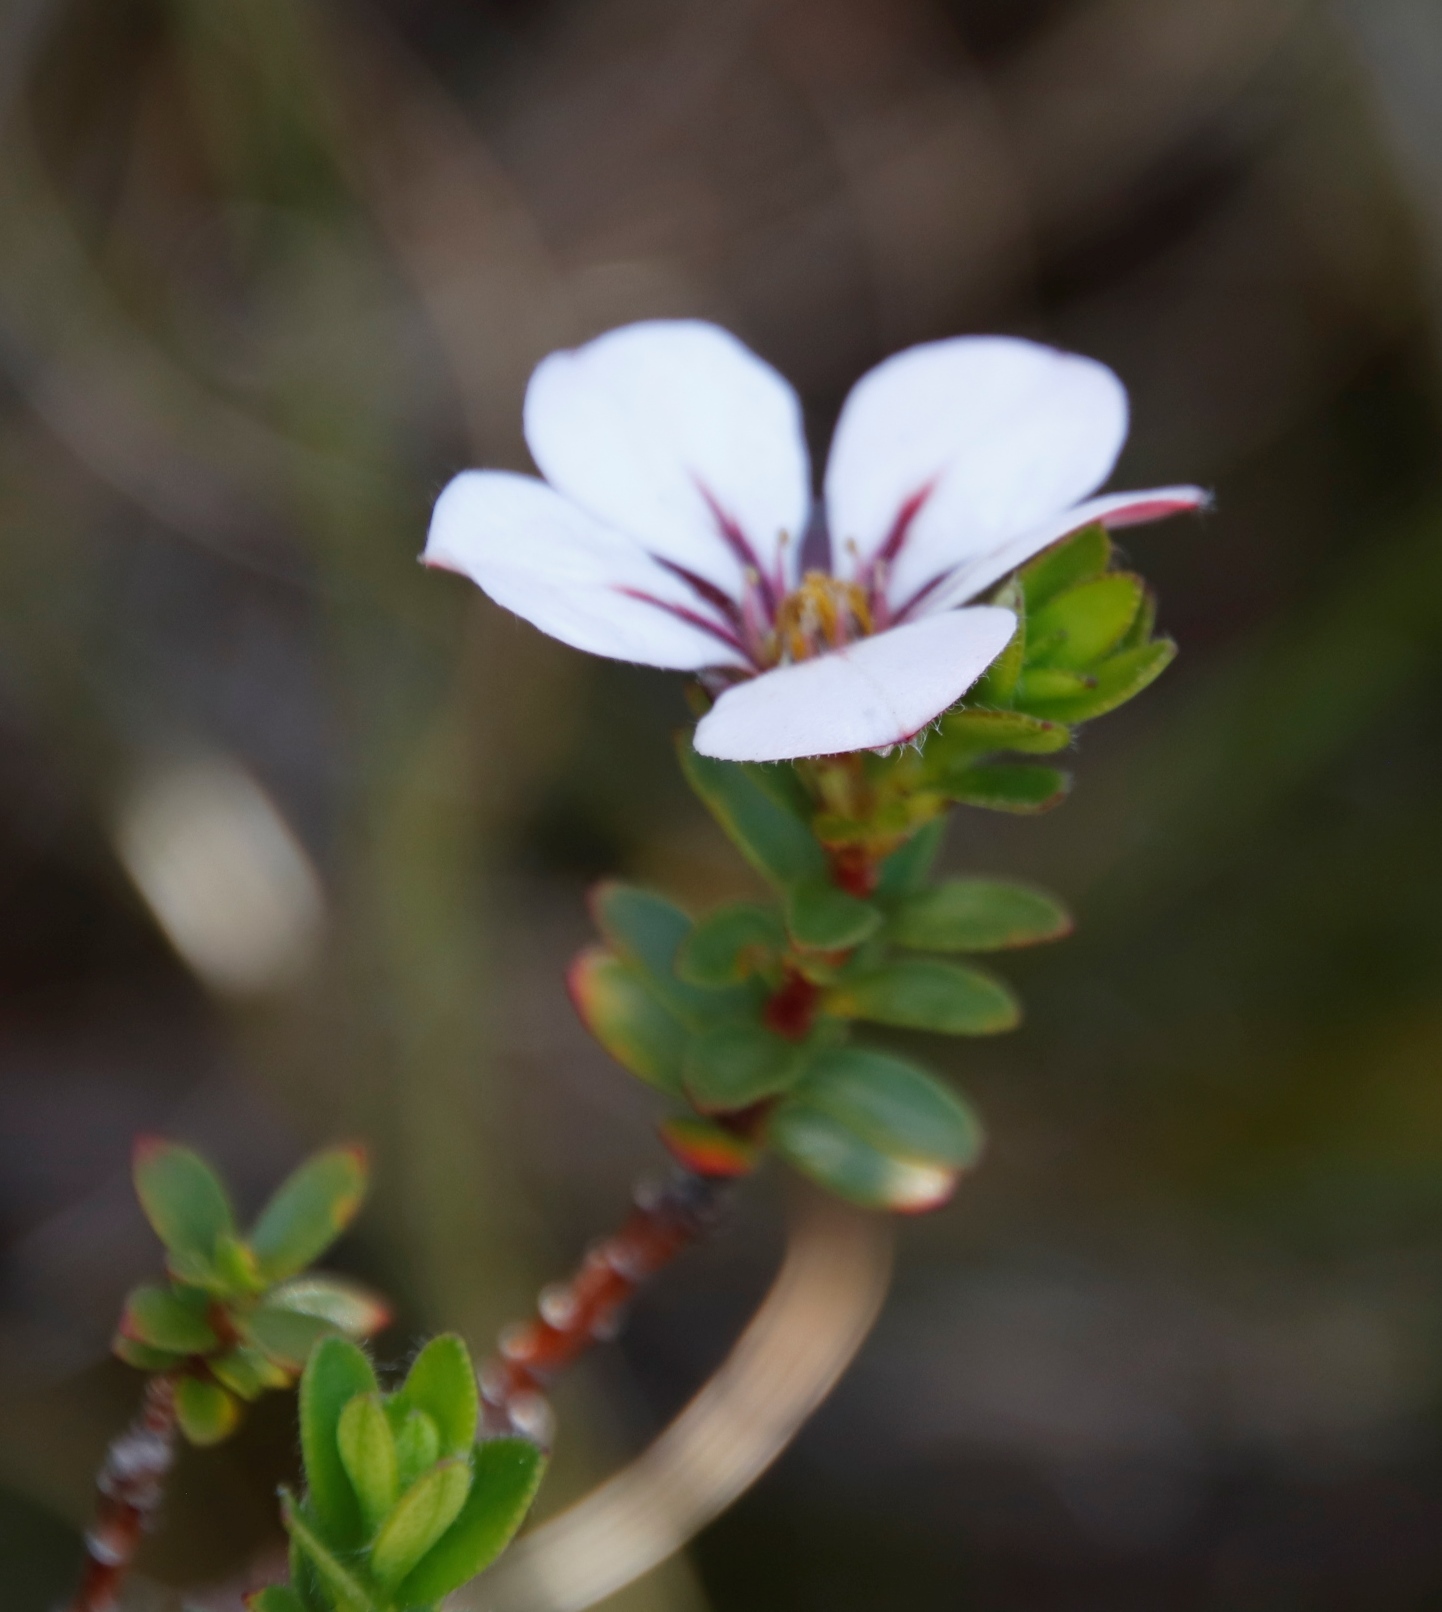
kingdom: Plantae
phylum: Tracheophyta
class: Magnoliopsida
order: Sapindales
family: Rutaceae
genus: Adenandra
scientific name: Adenandra villosa
